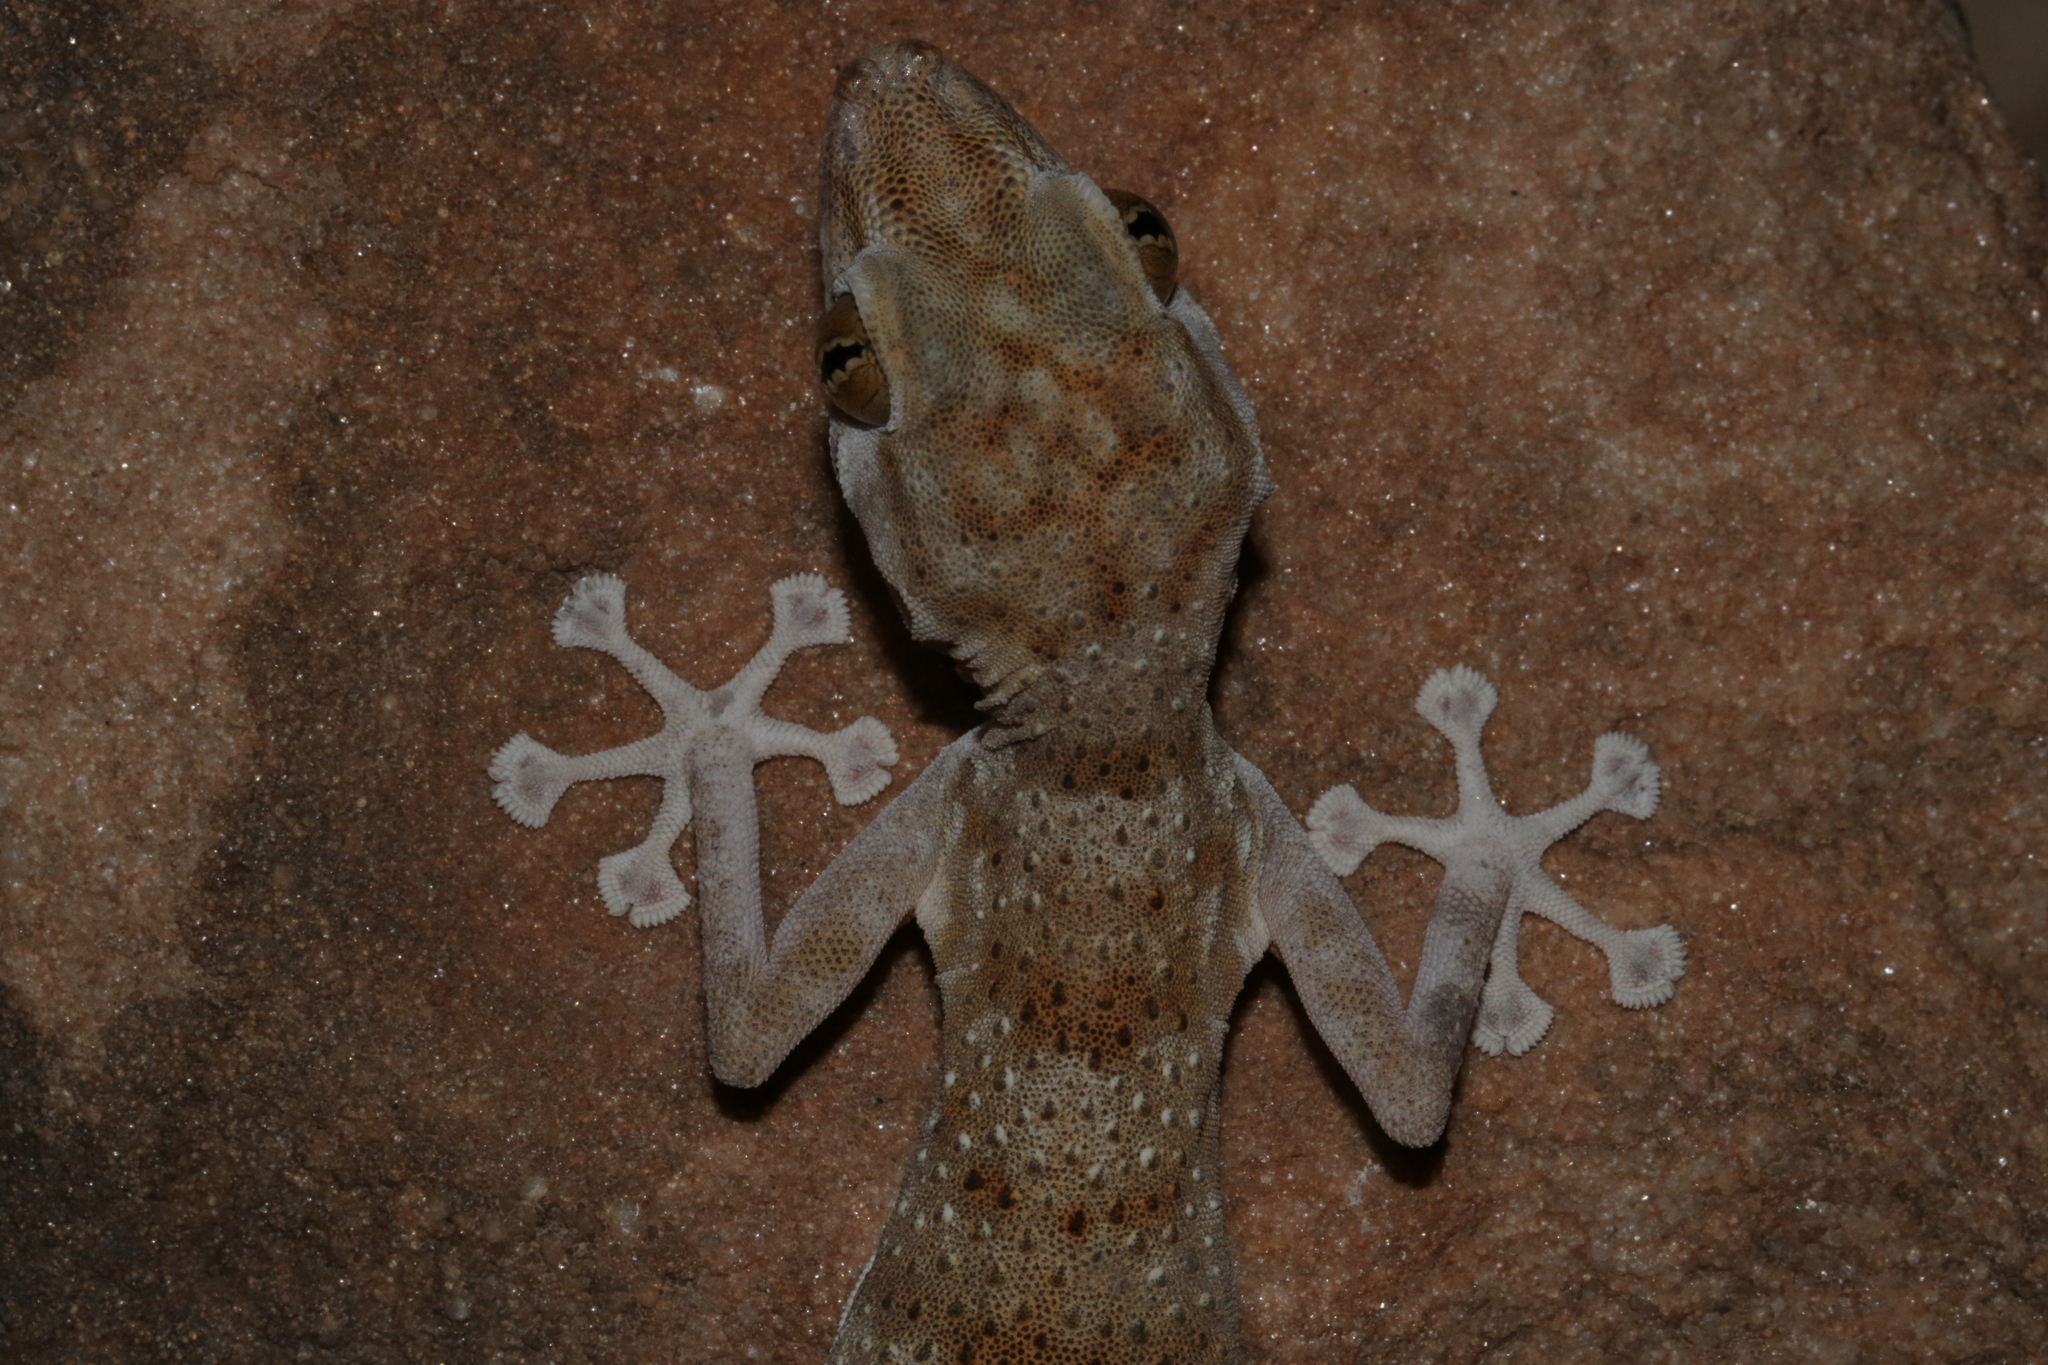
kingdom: Animalia
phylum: Chordata
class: Squamata
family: Phyllodactylidae
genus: Ptyodactylus
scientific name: Ptyodactylus hasselquistii
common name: Hasselquist’s fan-footed gecko
